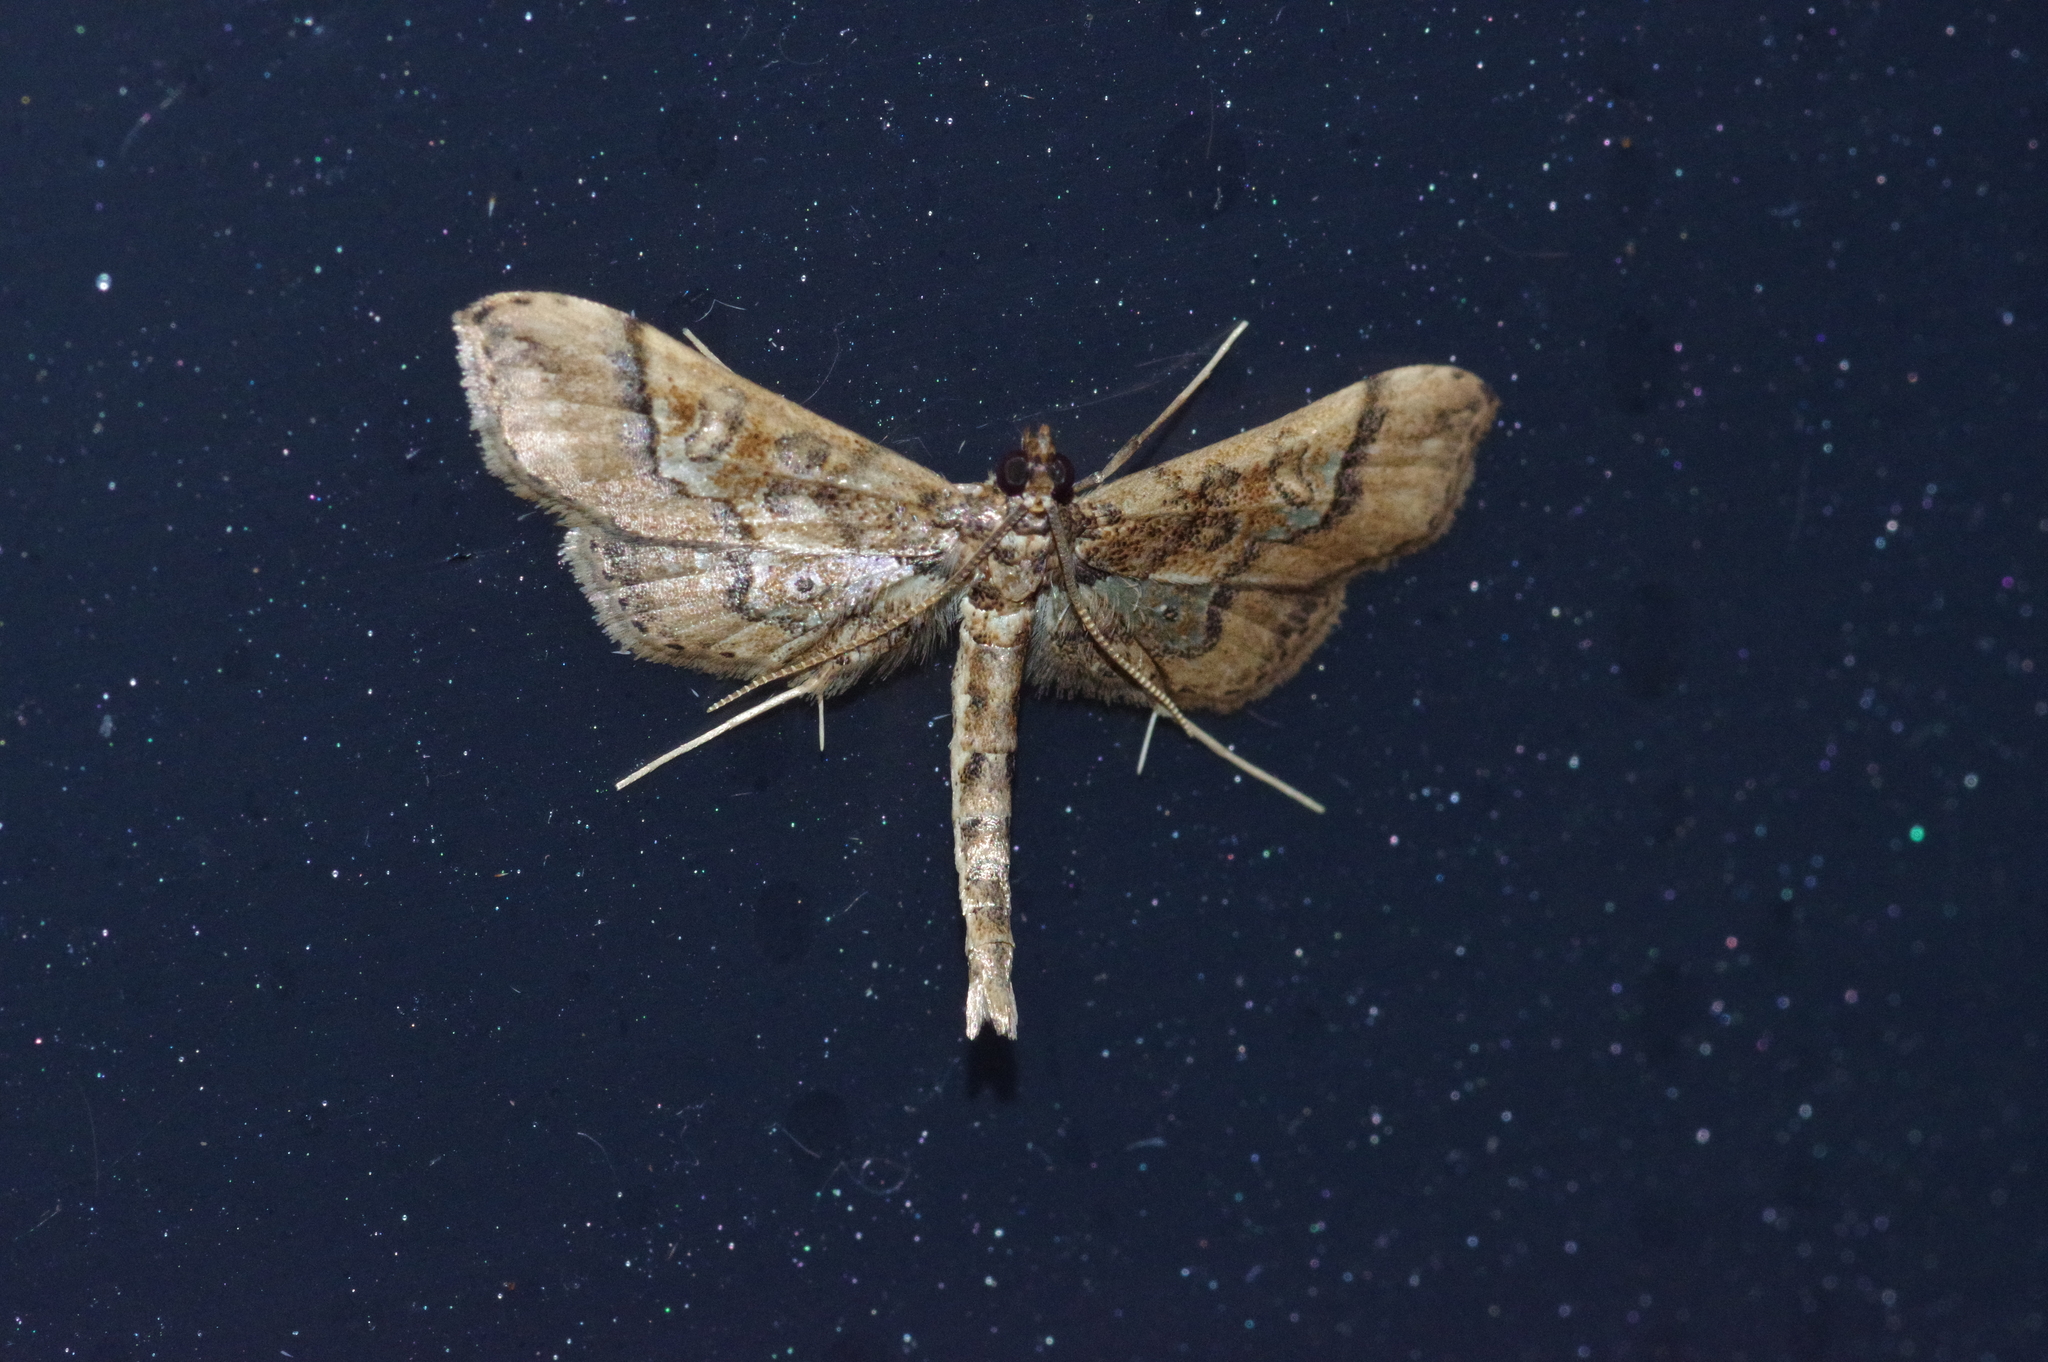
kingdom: Animalia
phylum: Arthropoda
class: Insecta
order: Lepidoptera
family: Crambidae
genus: Hydriris
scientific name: Hydriris ornatalis
